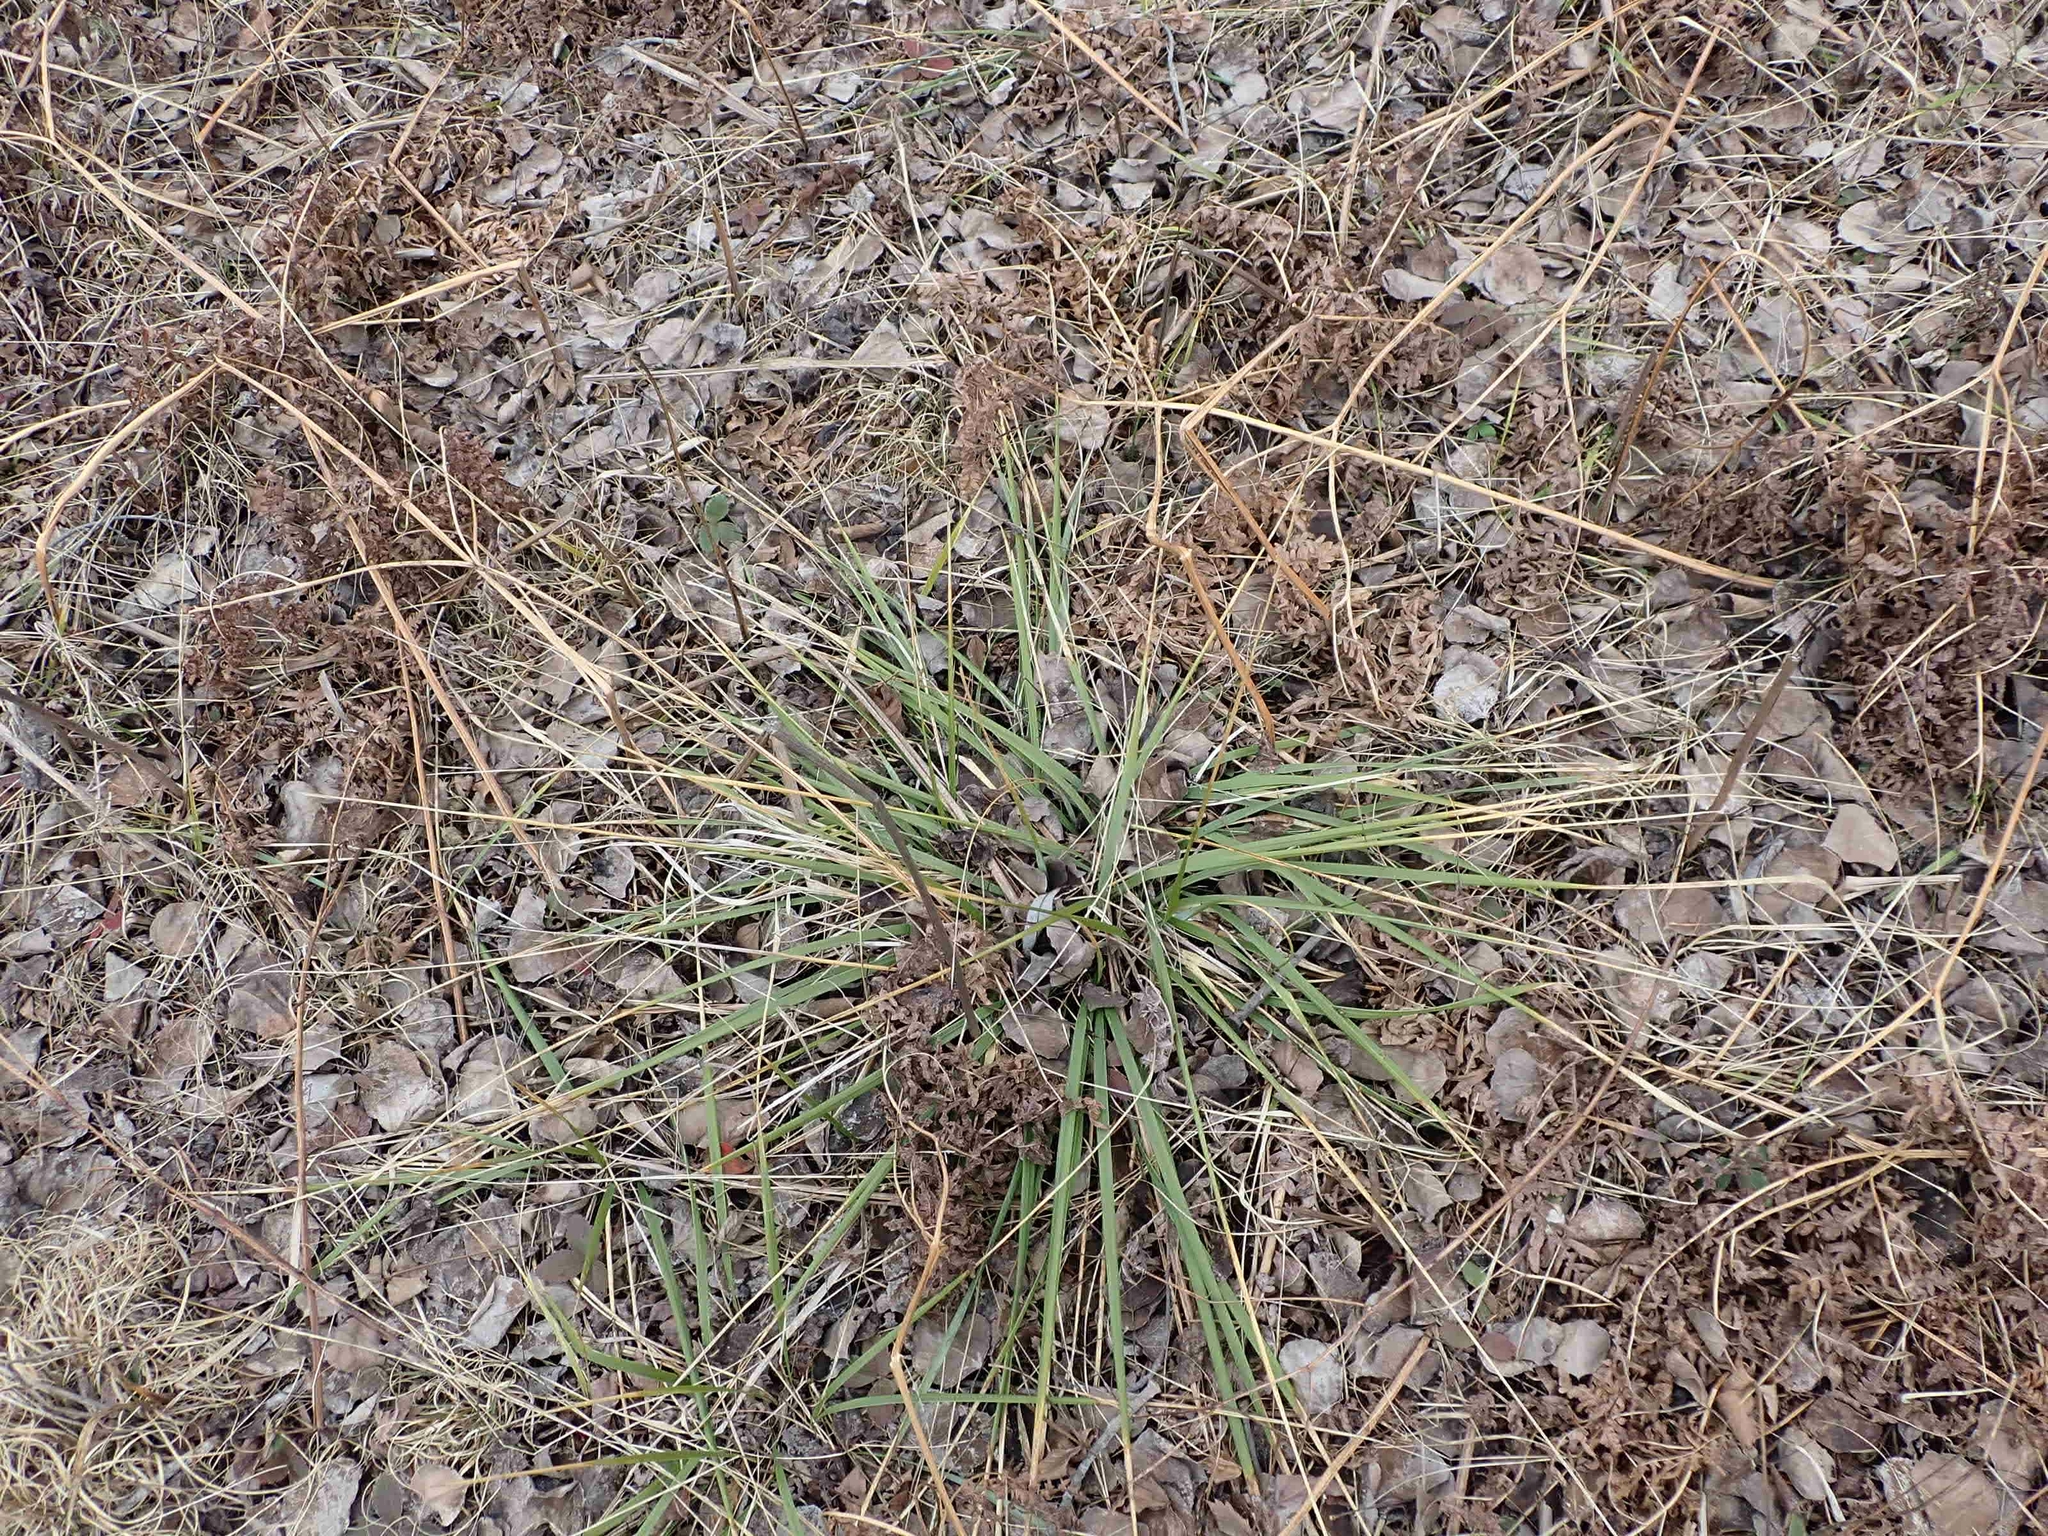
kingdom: Plantae
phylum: Tracheophyta
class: Liliopsida
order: Poales
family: Poaceae
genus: Oryzopsis
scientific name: Oryzopsis asperifolia
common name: Rough-leaved mountain rice
